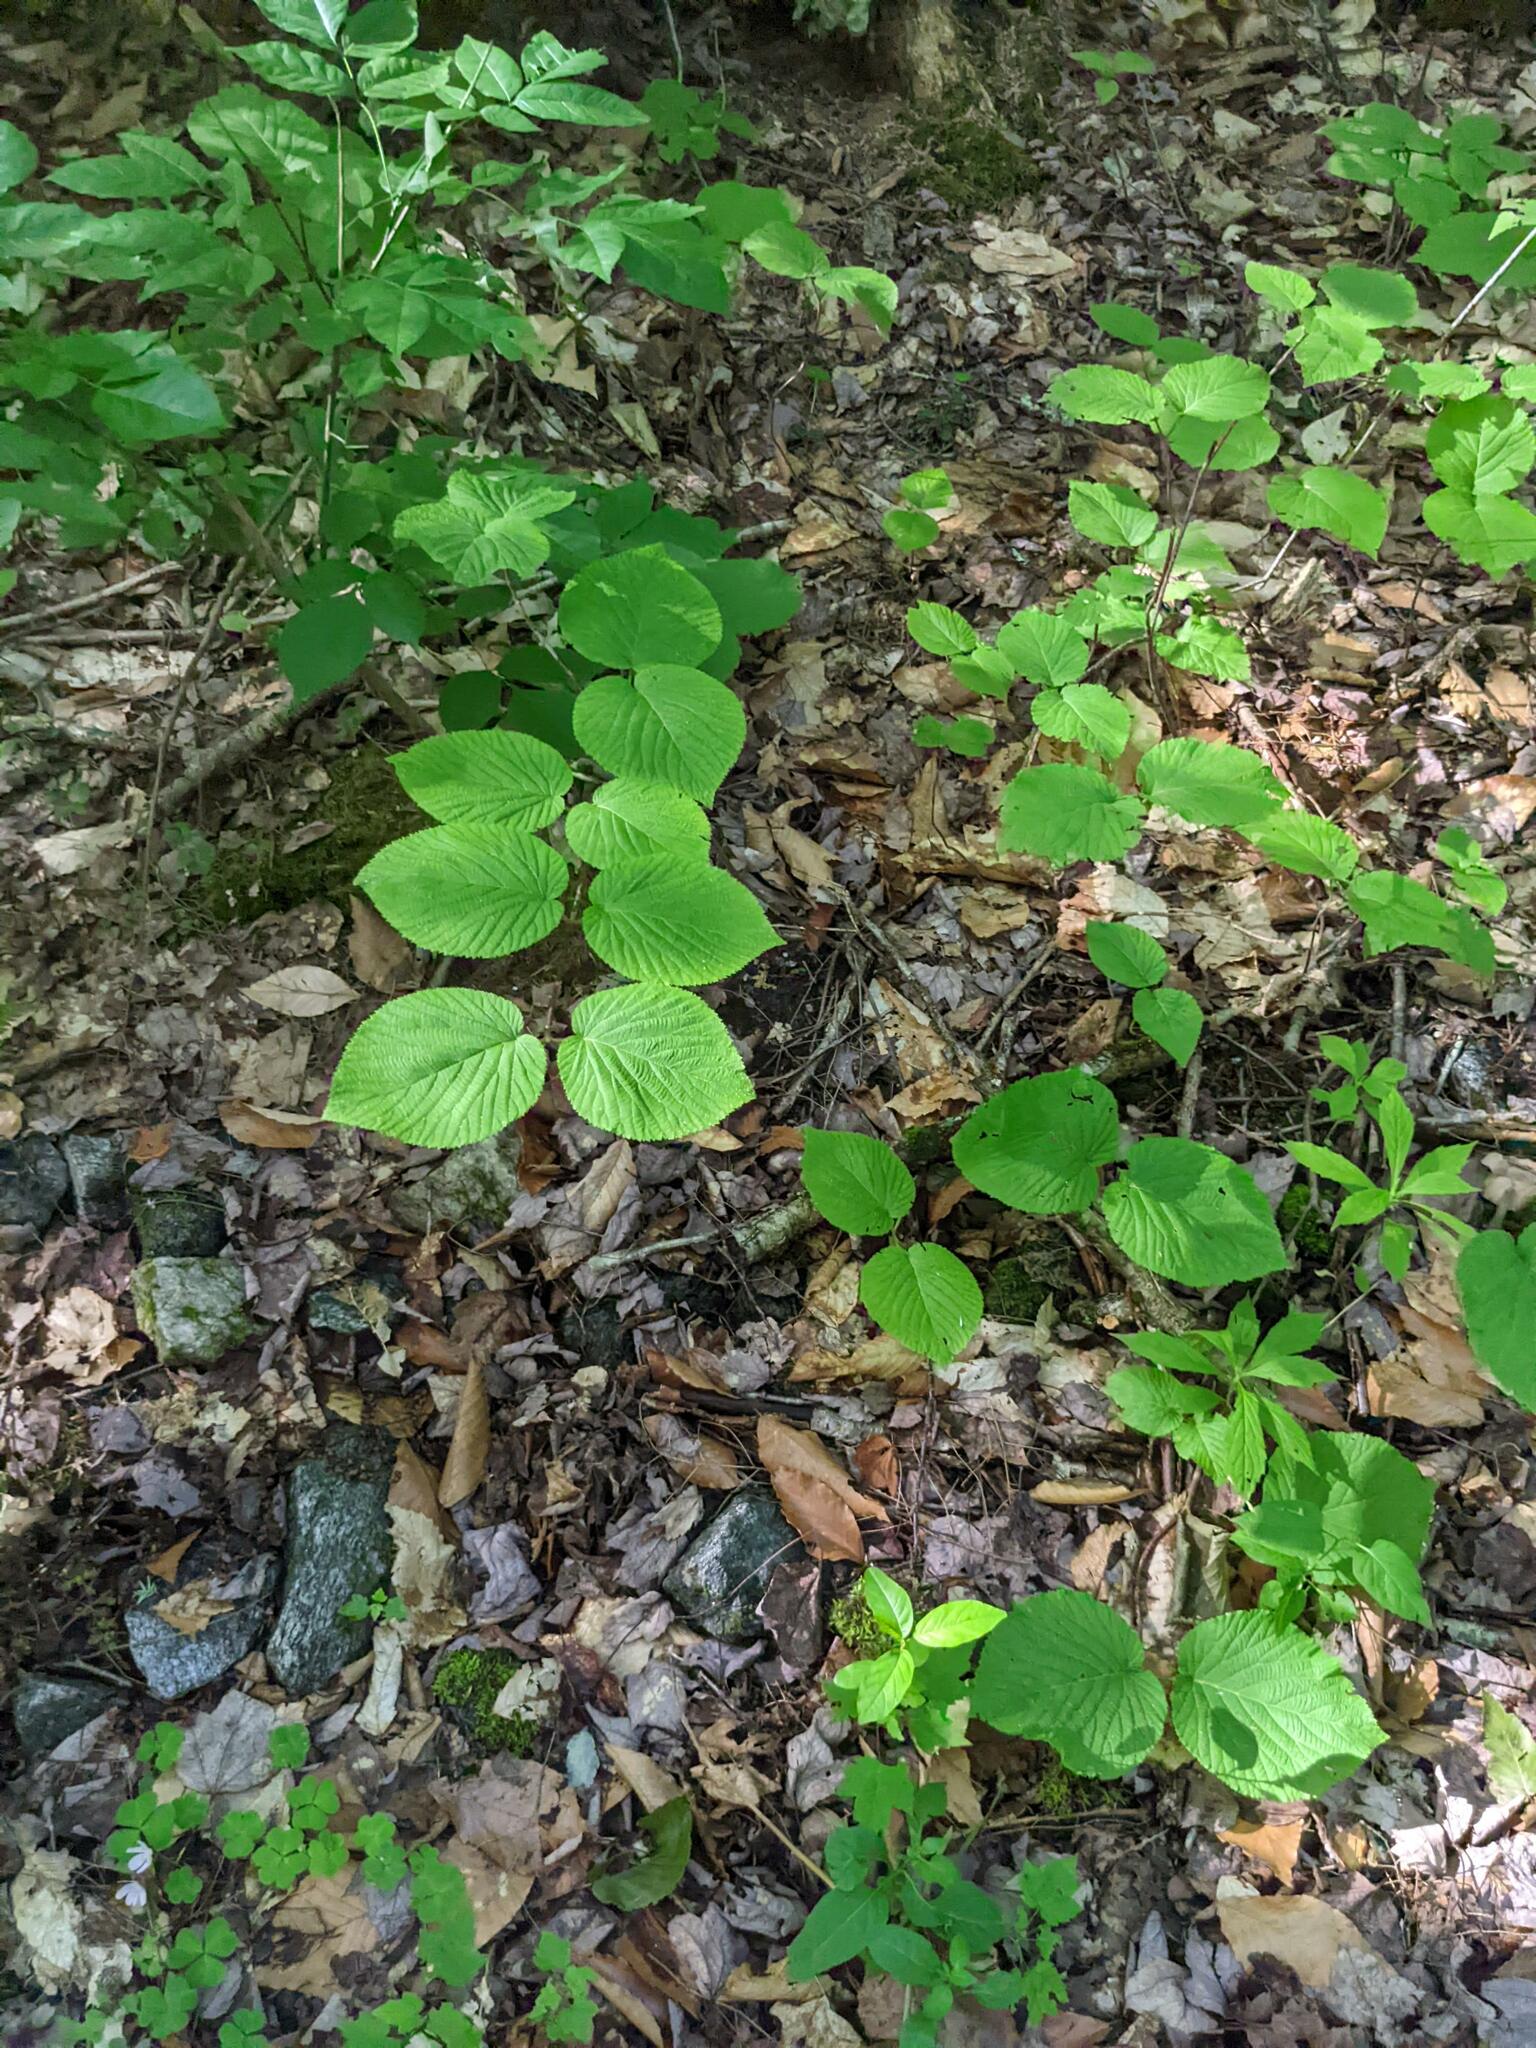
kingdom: Plantae
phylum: Tracheophyta
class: Magnoliopsida
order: Dipsacales
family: Viburnaceae
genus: Viburnum
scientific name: Viburnum lantanoides
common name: Hobblebush
